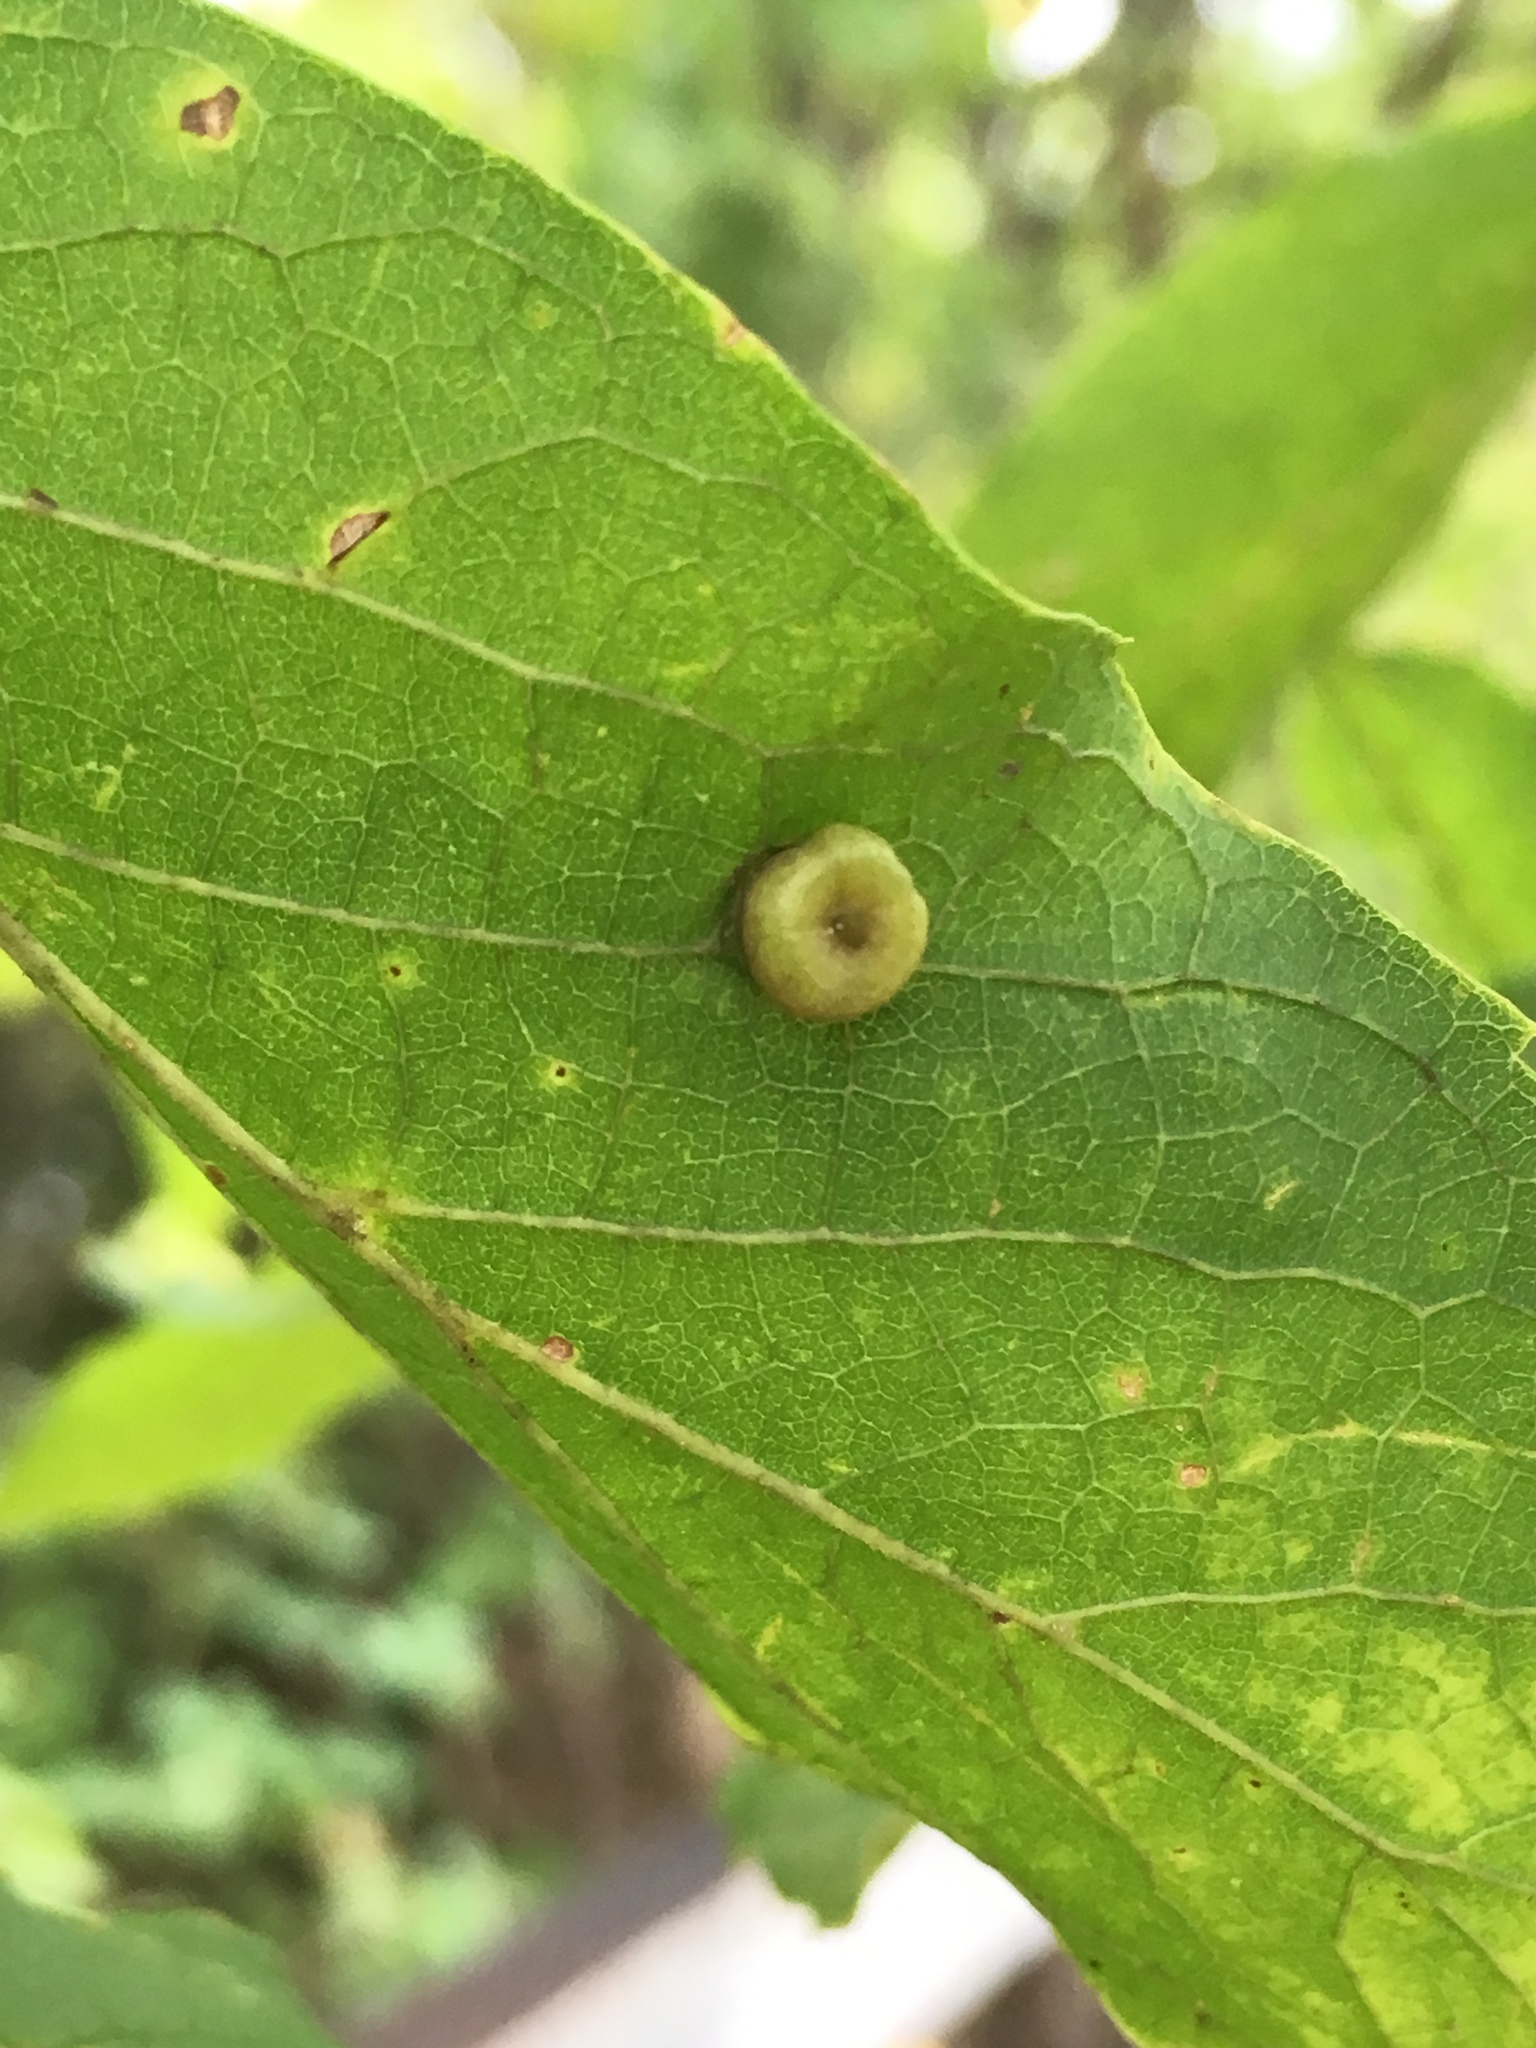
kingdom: Animalia
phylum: Arthropoda
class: Insecta
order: Hemiptera
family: Aphalaridae
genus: Pachypsylla
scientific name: Pachypsylla celtidismamma
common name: Hackberry nipplegall psyllid
